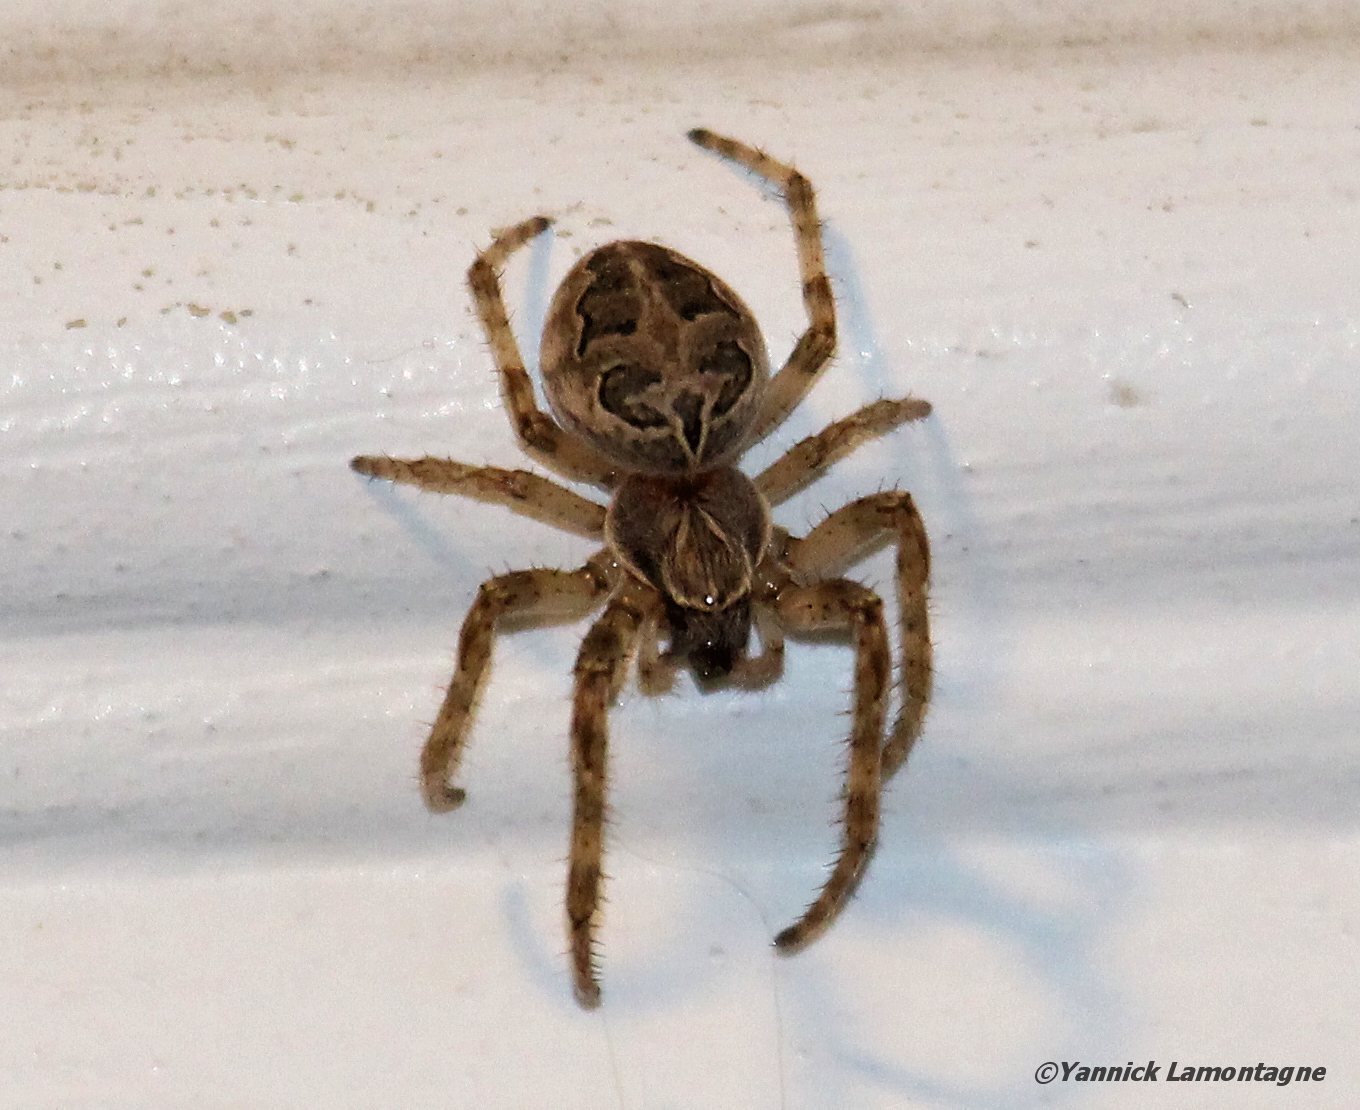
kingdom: Animalia
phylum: Arthropoda
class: Arachnida
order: Araneae
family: Araneidae
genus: Larinioides
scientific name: Larinioides sclopetarius
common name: Bridge orbweaver
